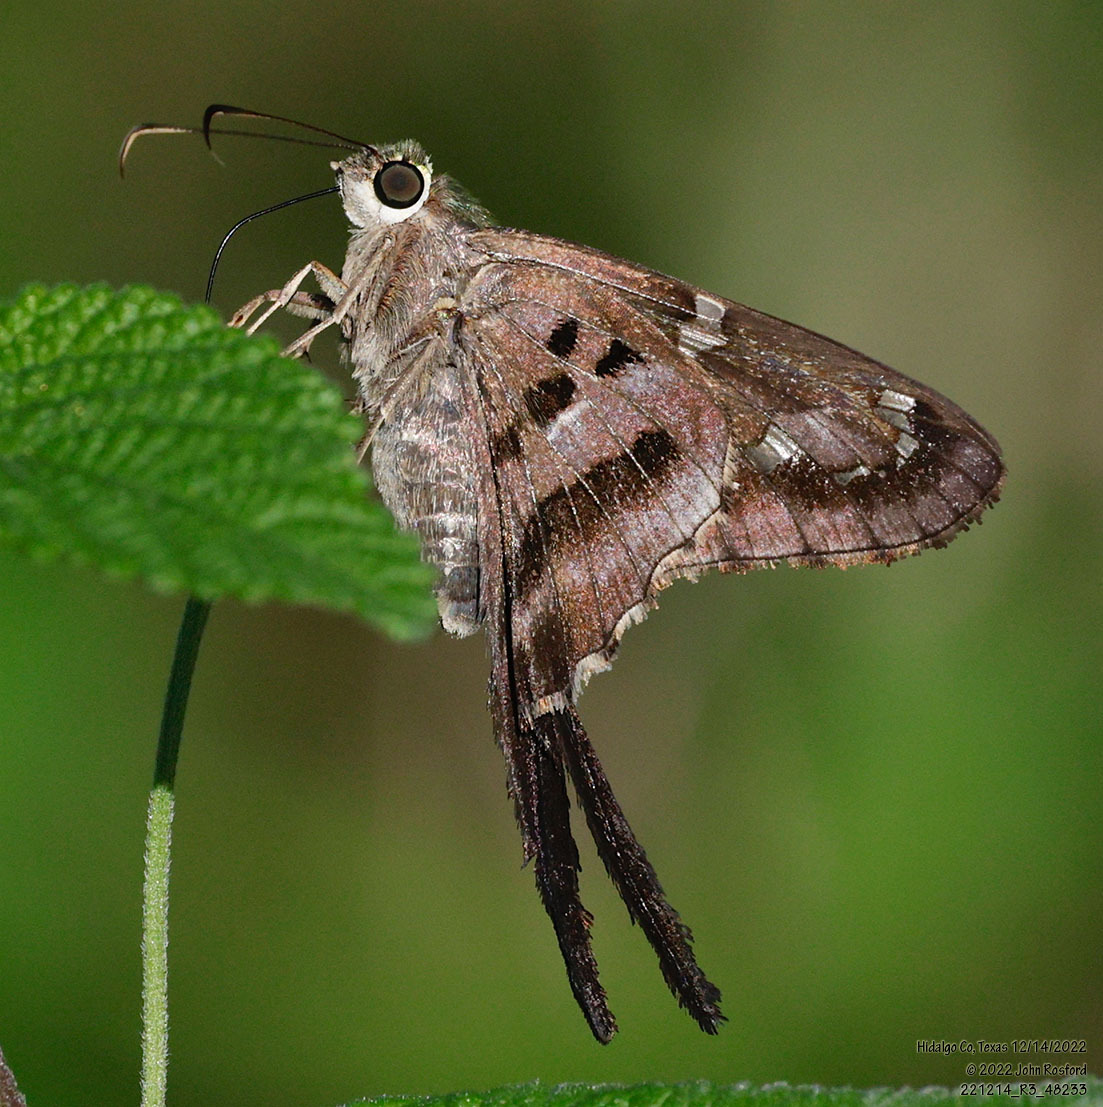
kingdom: Animalia
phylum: Arthropoda
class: Insecta
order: Lepidoptera
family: Hesperiidae
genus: Urbanus
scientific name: Urbanus proteus
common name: Long-tailed skipper
